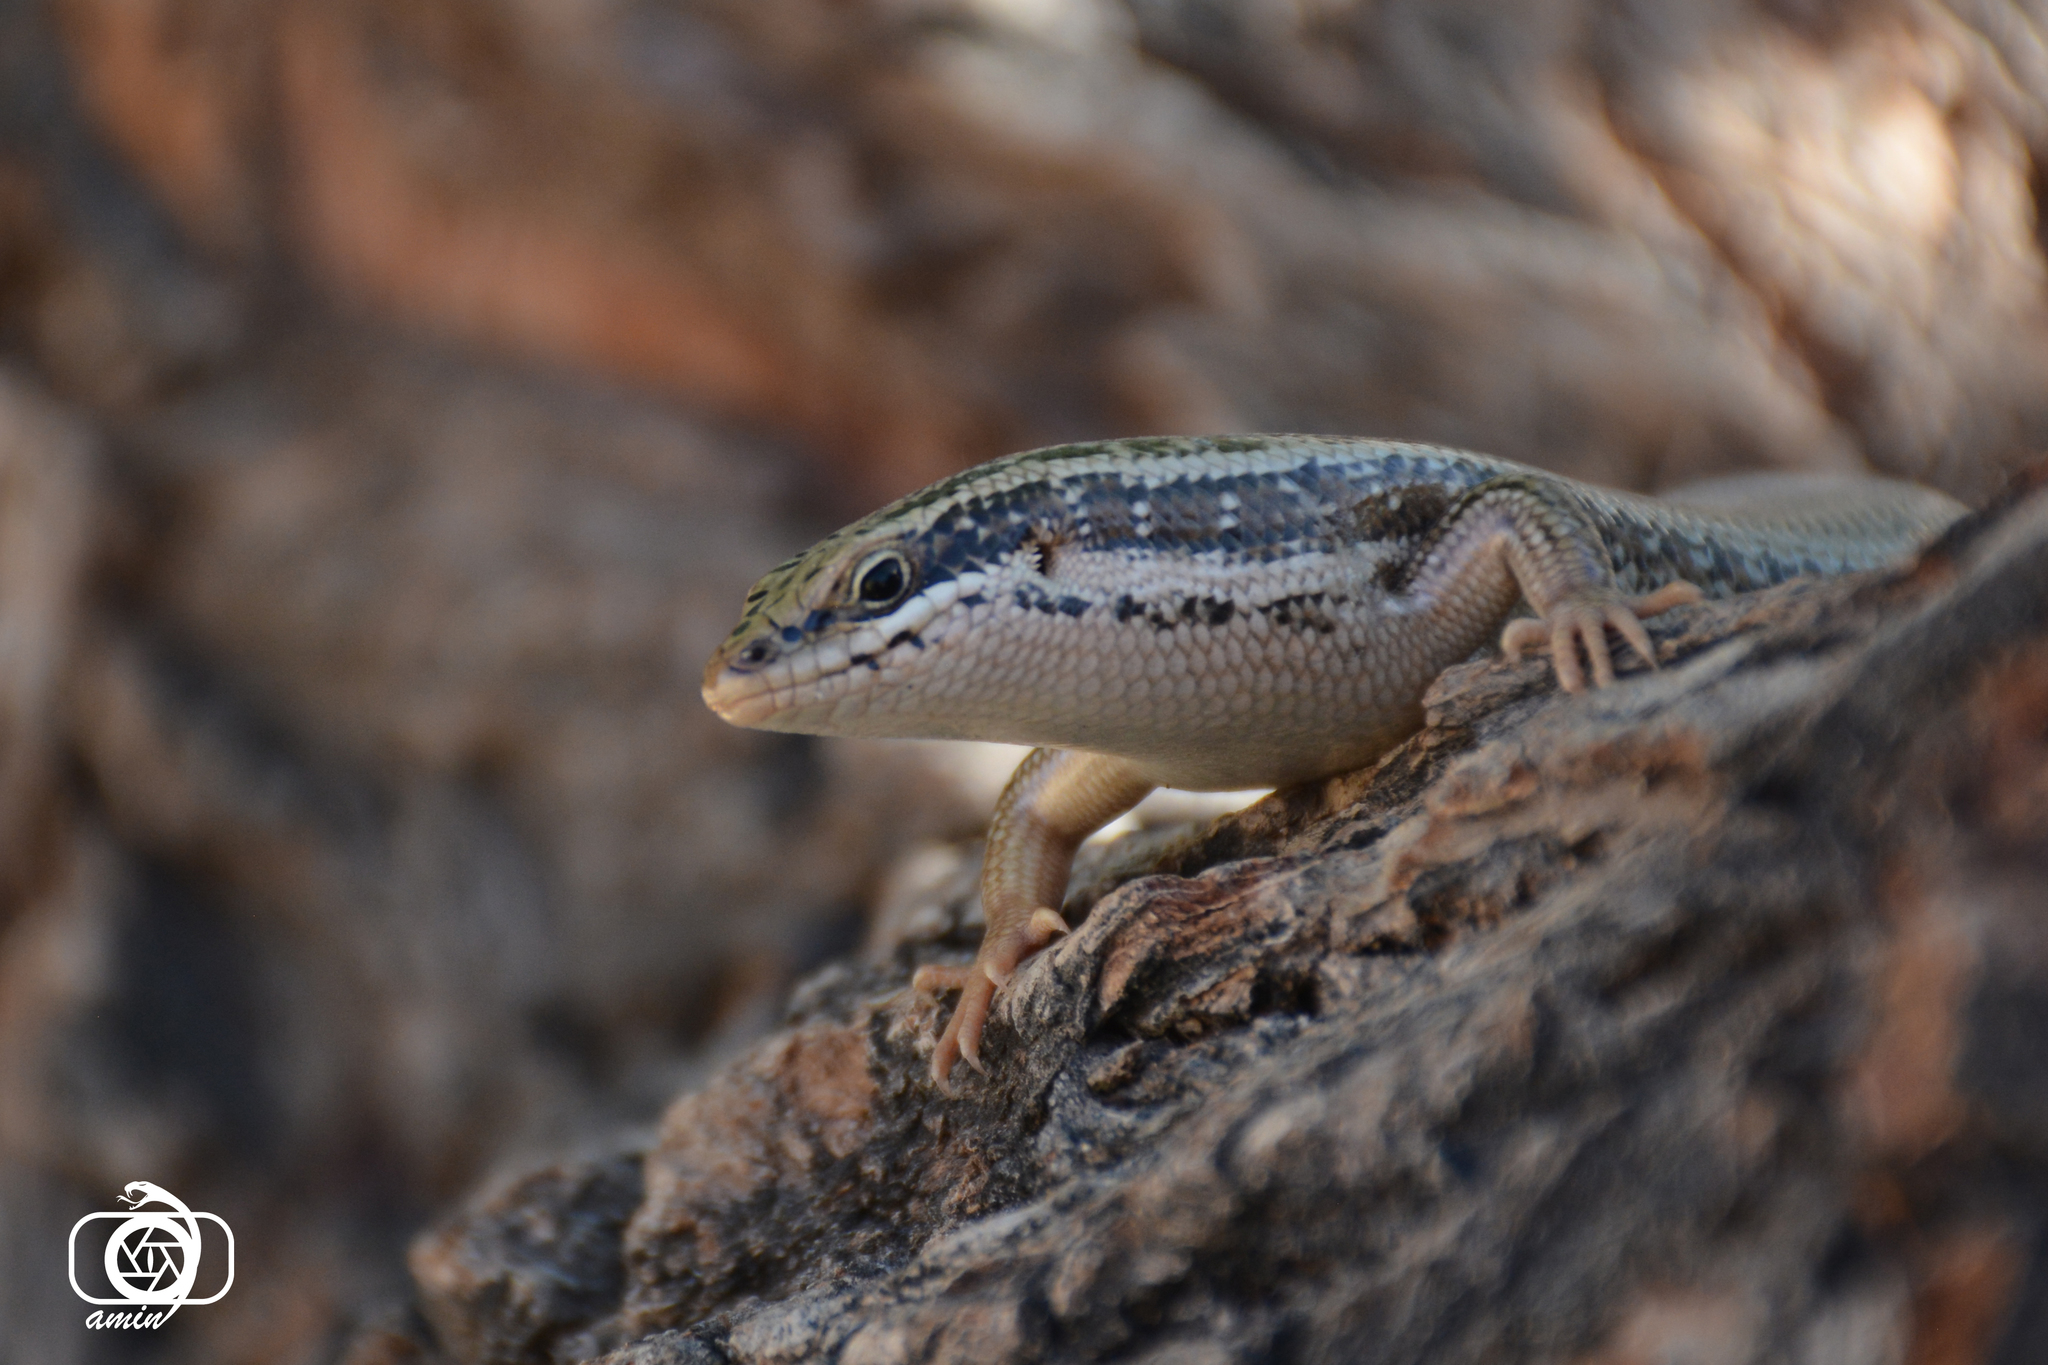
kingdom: Animalia
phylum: Chordata
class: Squamata
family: Scincidae
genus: Heremites
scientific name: Heremites auratus
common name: Golden grass mabuya
